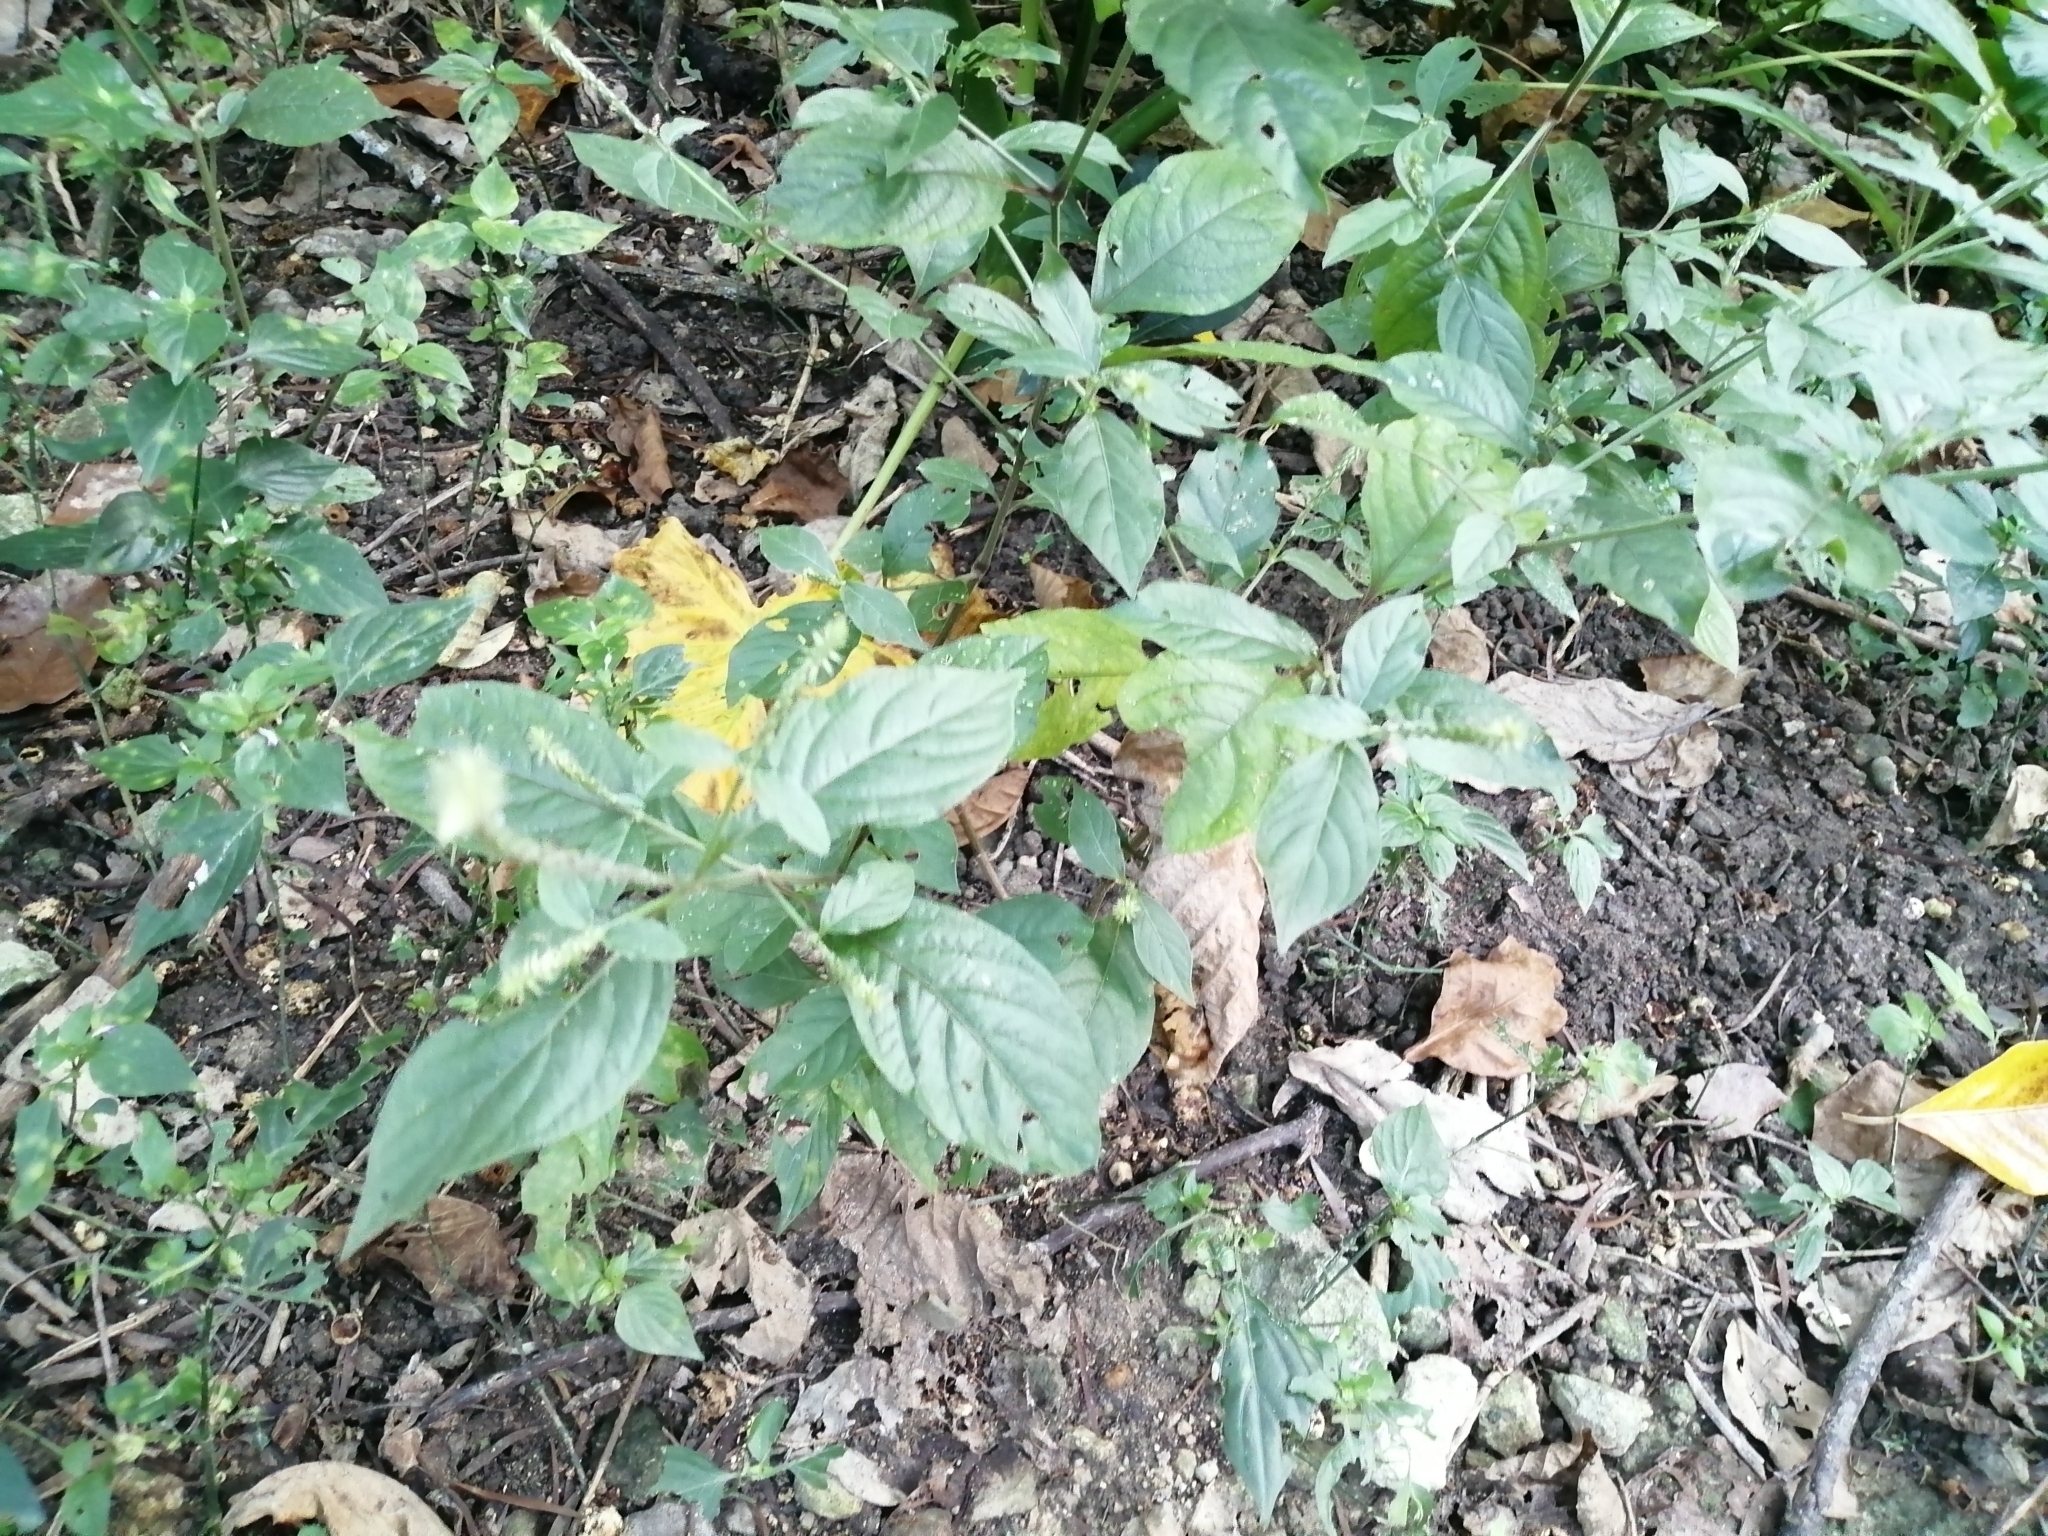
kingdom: Plantae
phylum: Tracheophyta
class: Magnoliopsida
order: Caryophyllales
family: Amaranthaceae
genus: Achyranthes
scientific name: Achyranthes aspera
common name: Devil's horsewhip
